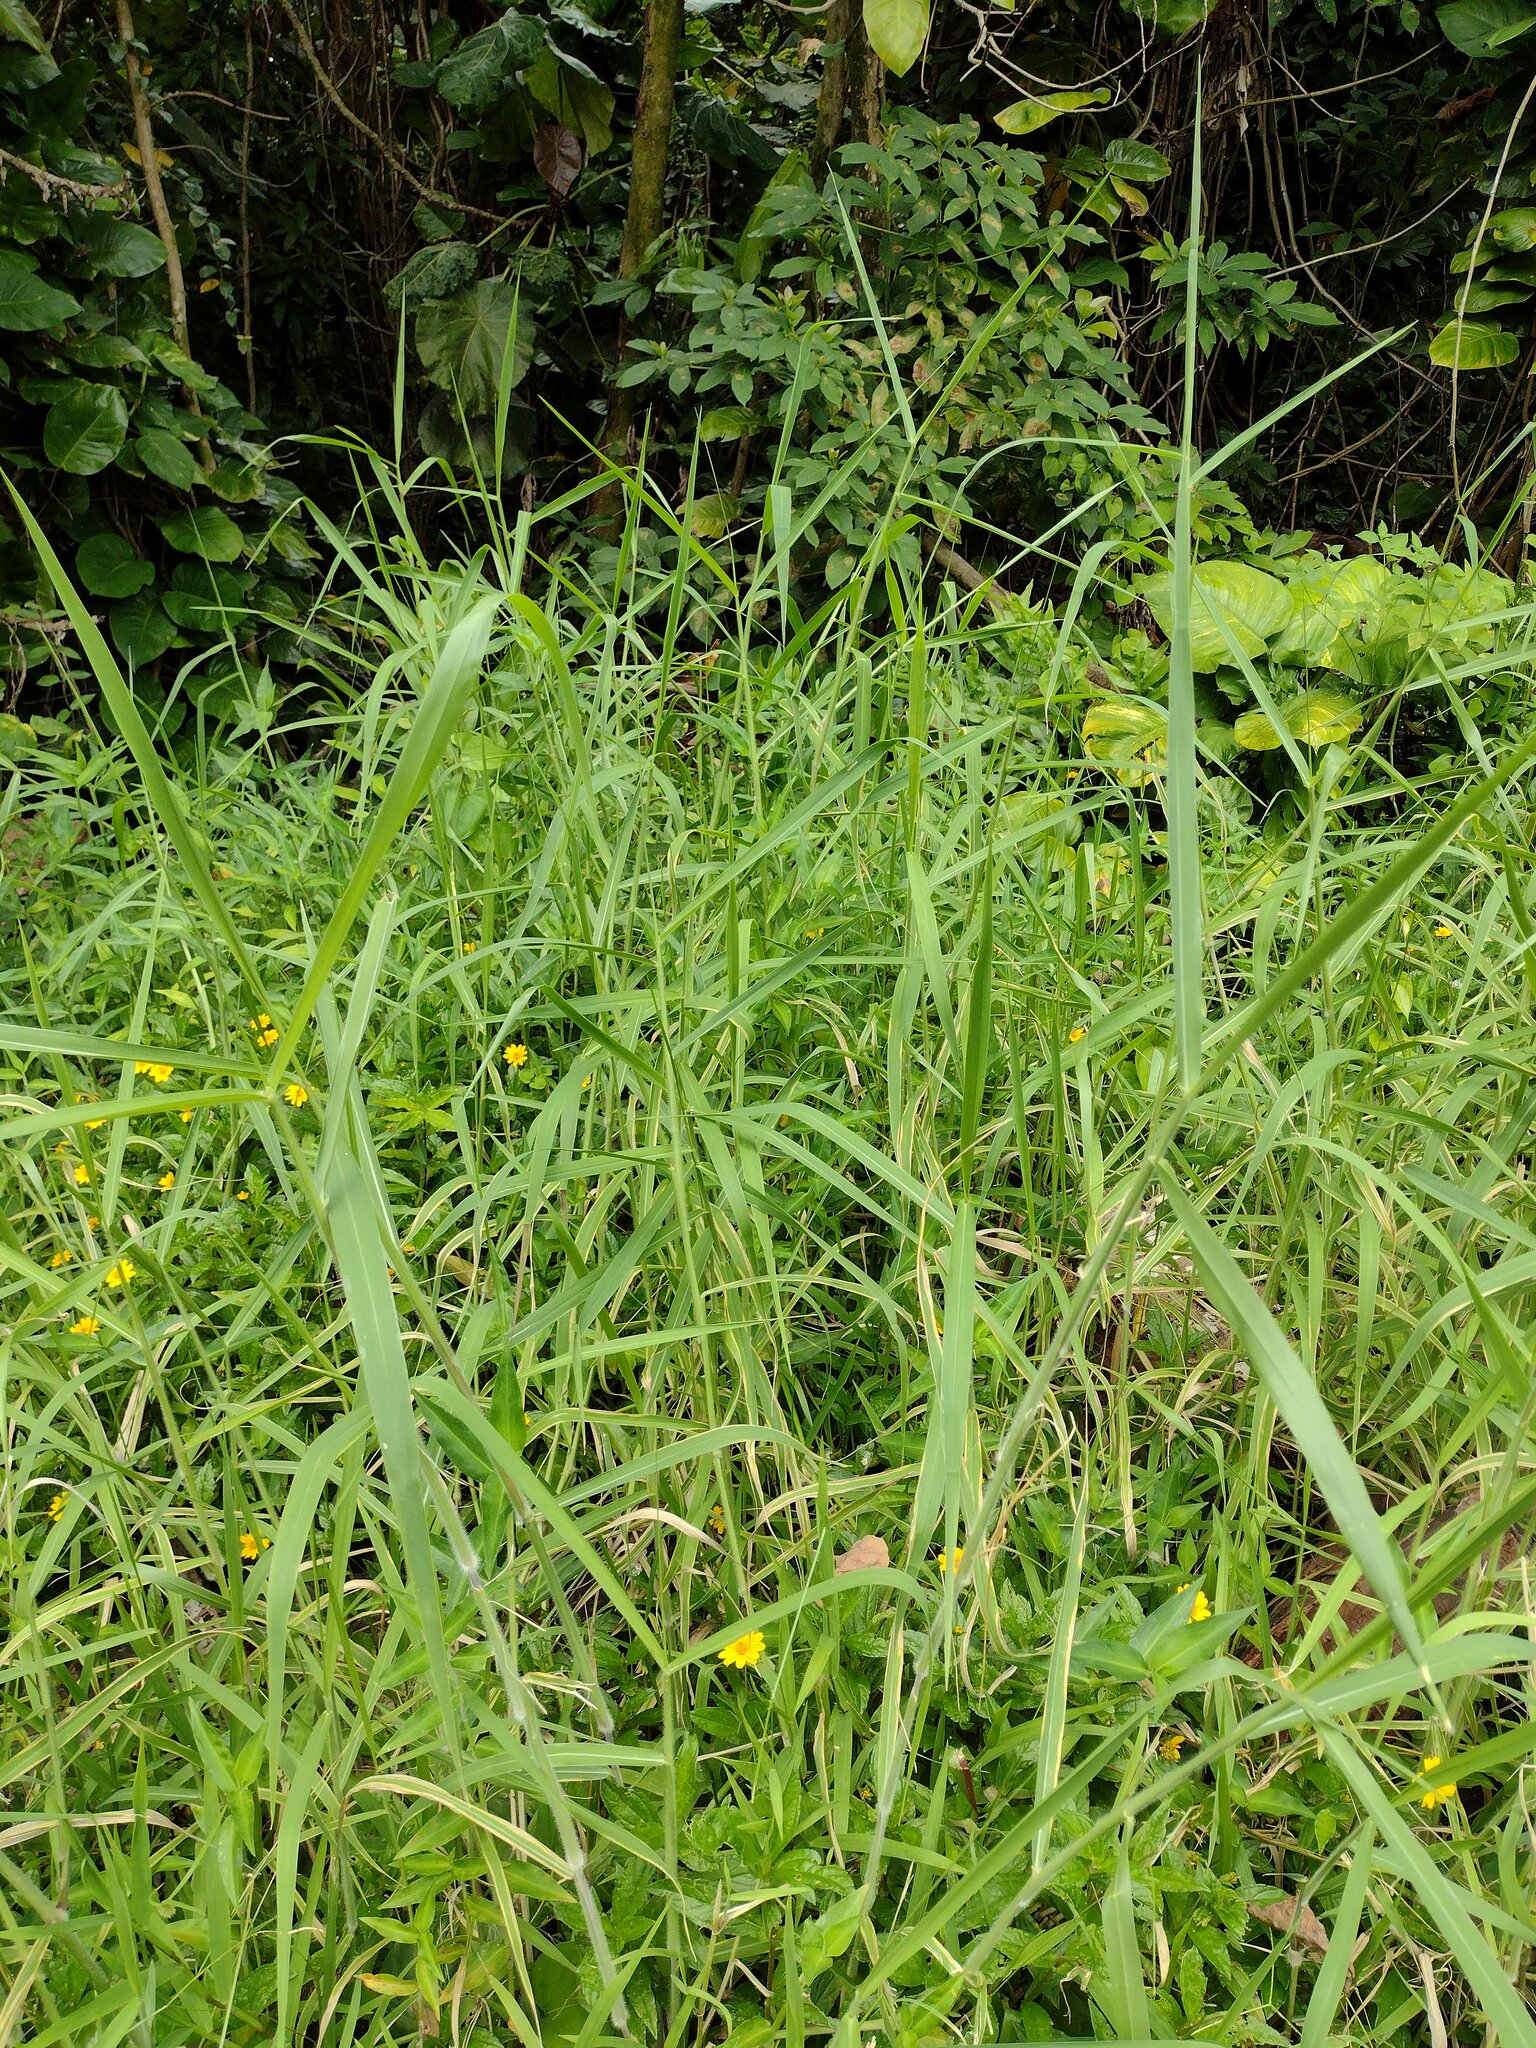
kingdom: Plantae
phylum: Tracheophyta
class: Liliopsida
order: Poales
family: Poaceae
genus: Urochloa
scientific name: Urochloa mutica
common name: Para grass
